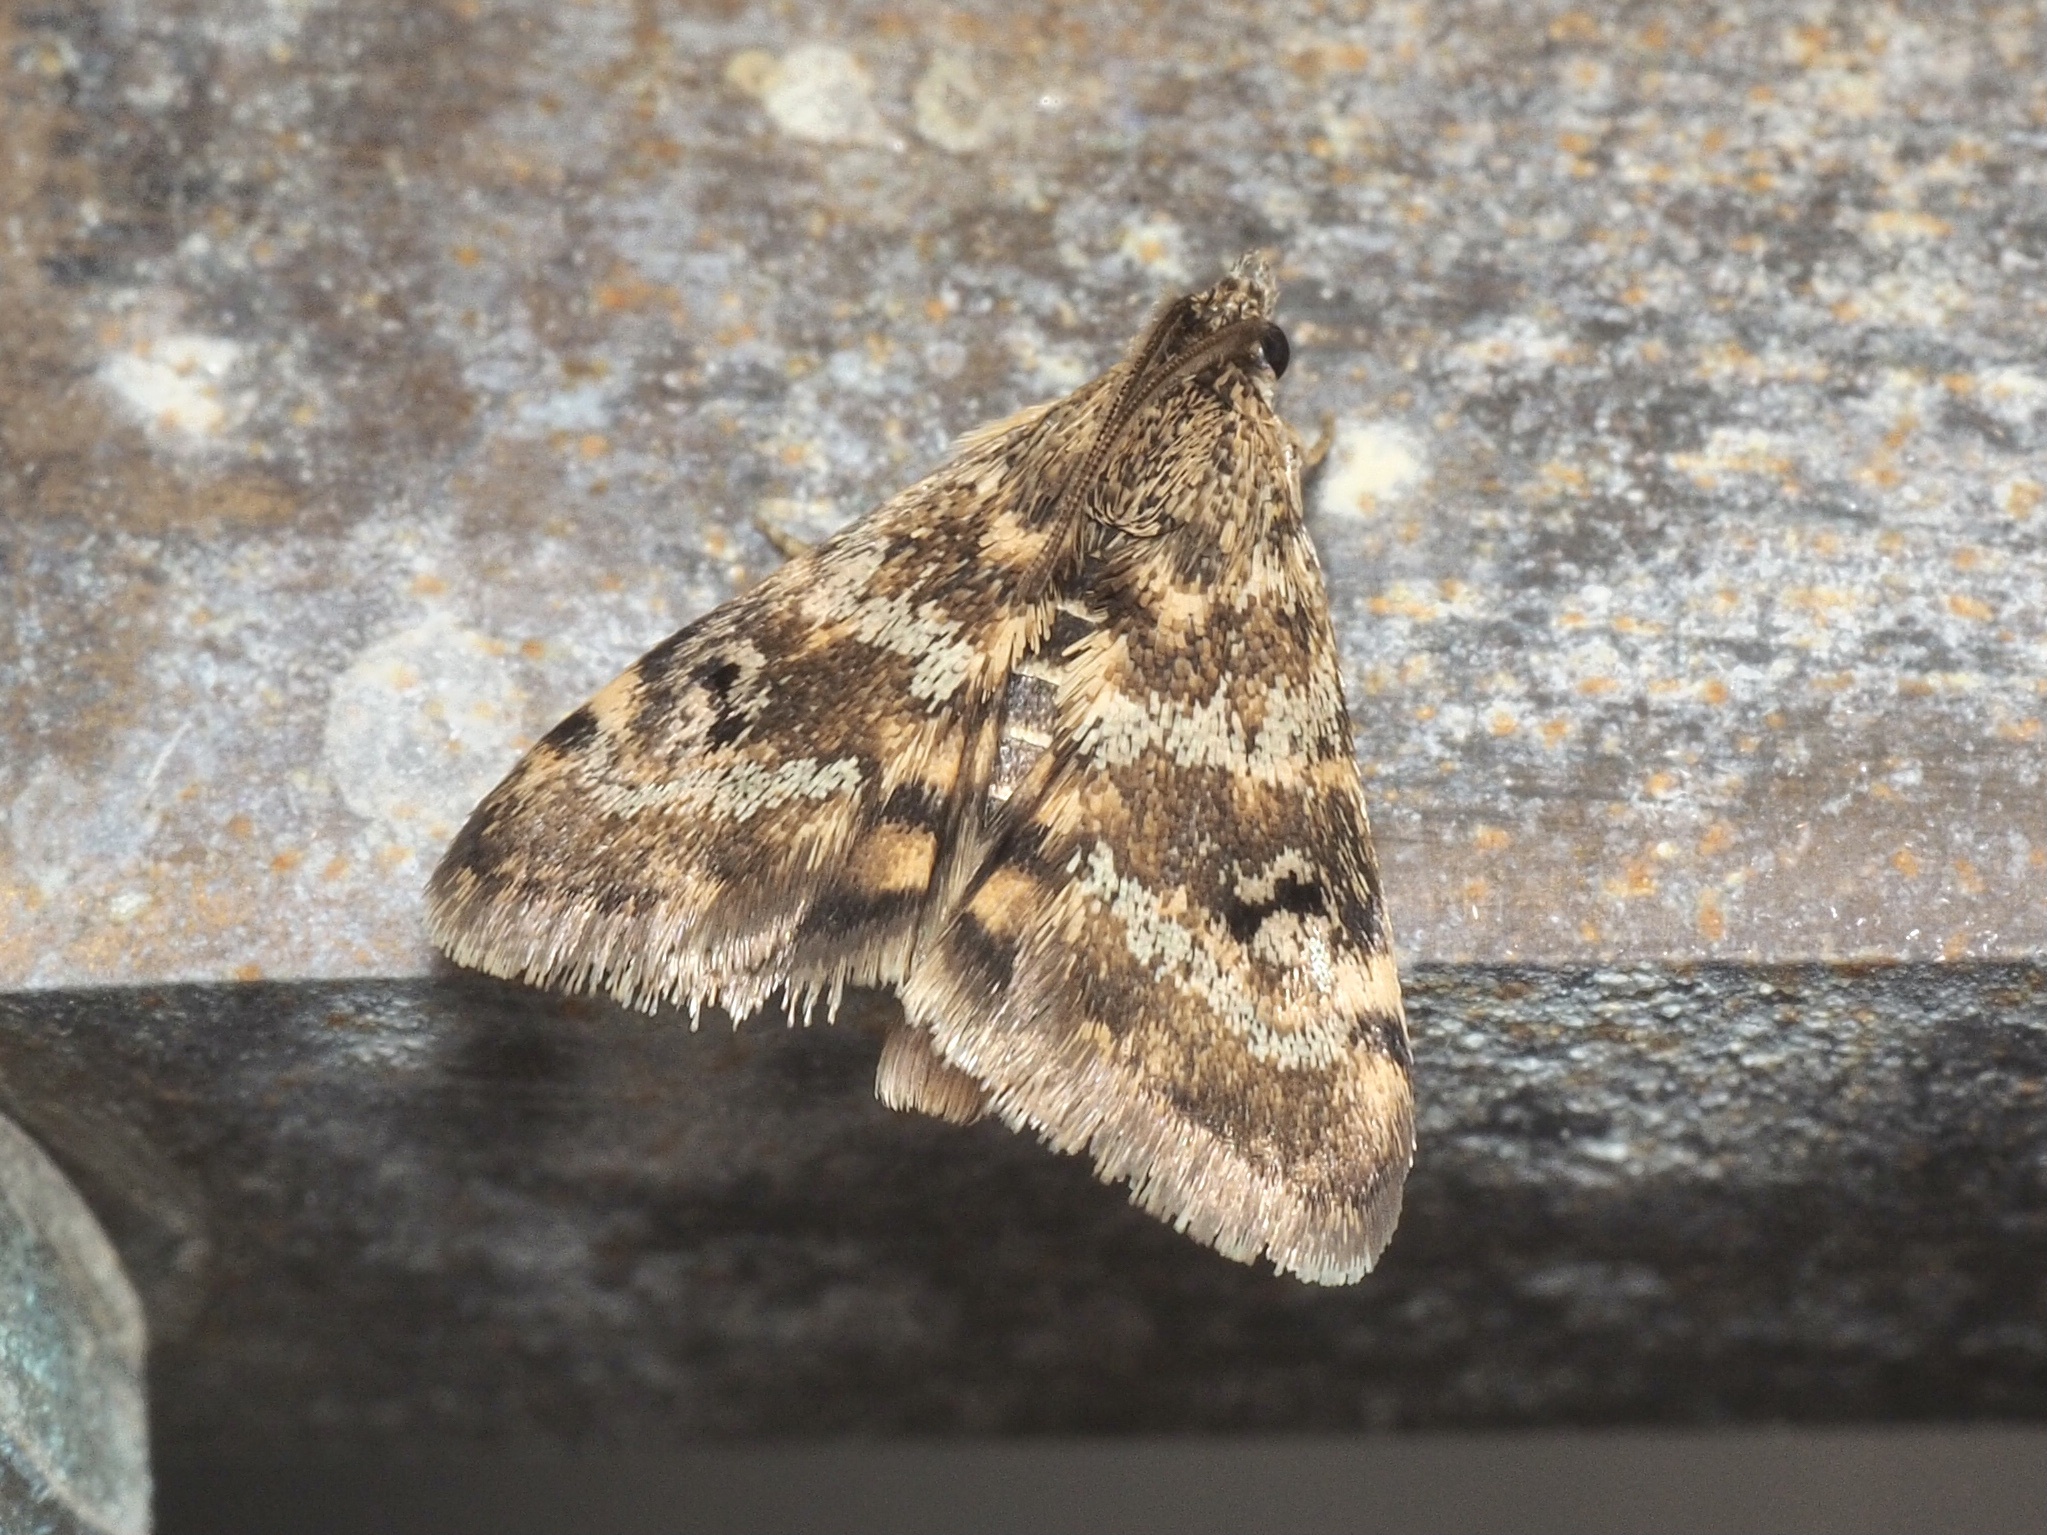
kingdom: Animalia
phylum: Arthropoda
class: Insecta
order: Lepidoptera
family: Crambidae
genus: Noctuelia
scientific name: Noctuelia Aporodes floralis
